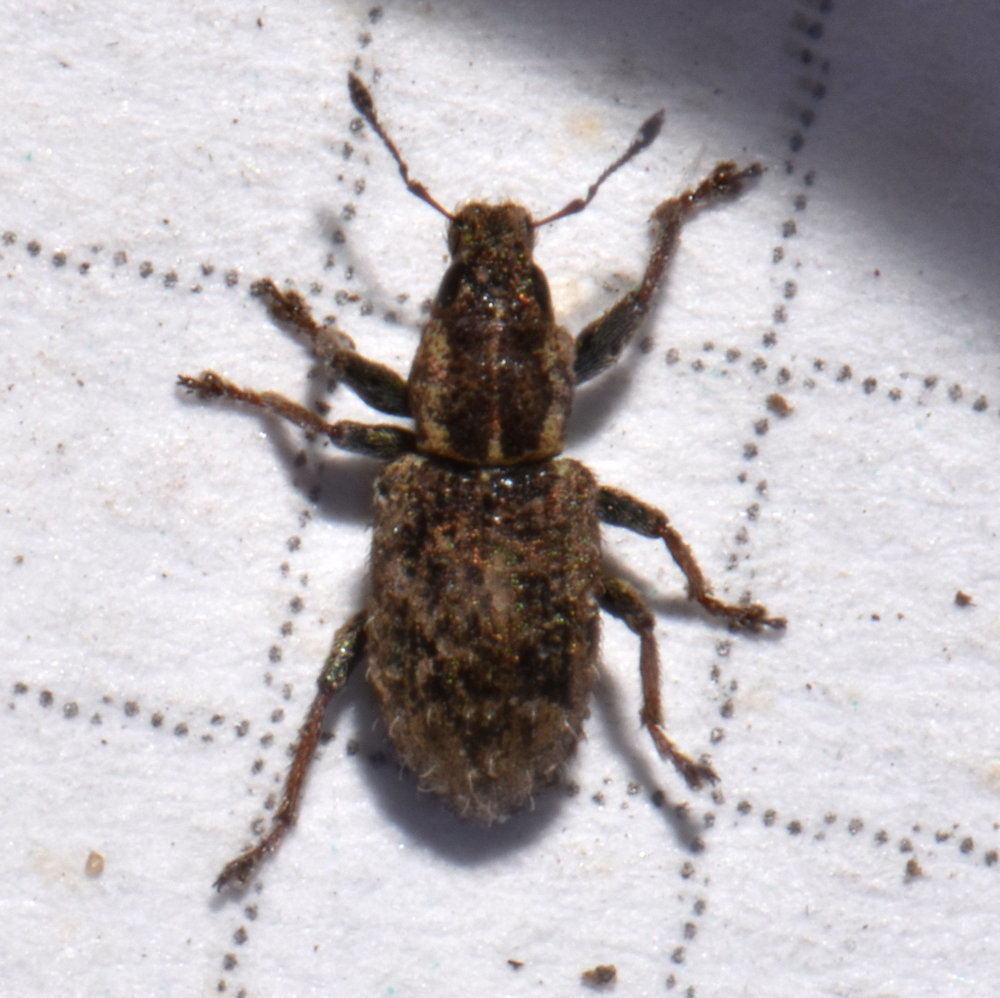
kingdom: Animalia
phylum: Arthropoda
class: Insecta
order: Coleoptera
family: Curculionidae
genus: Sitona
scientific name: Sitona hispidulus
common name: Clover weevil
